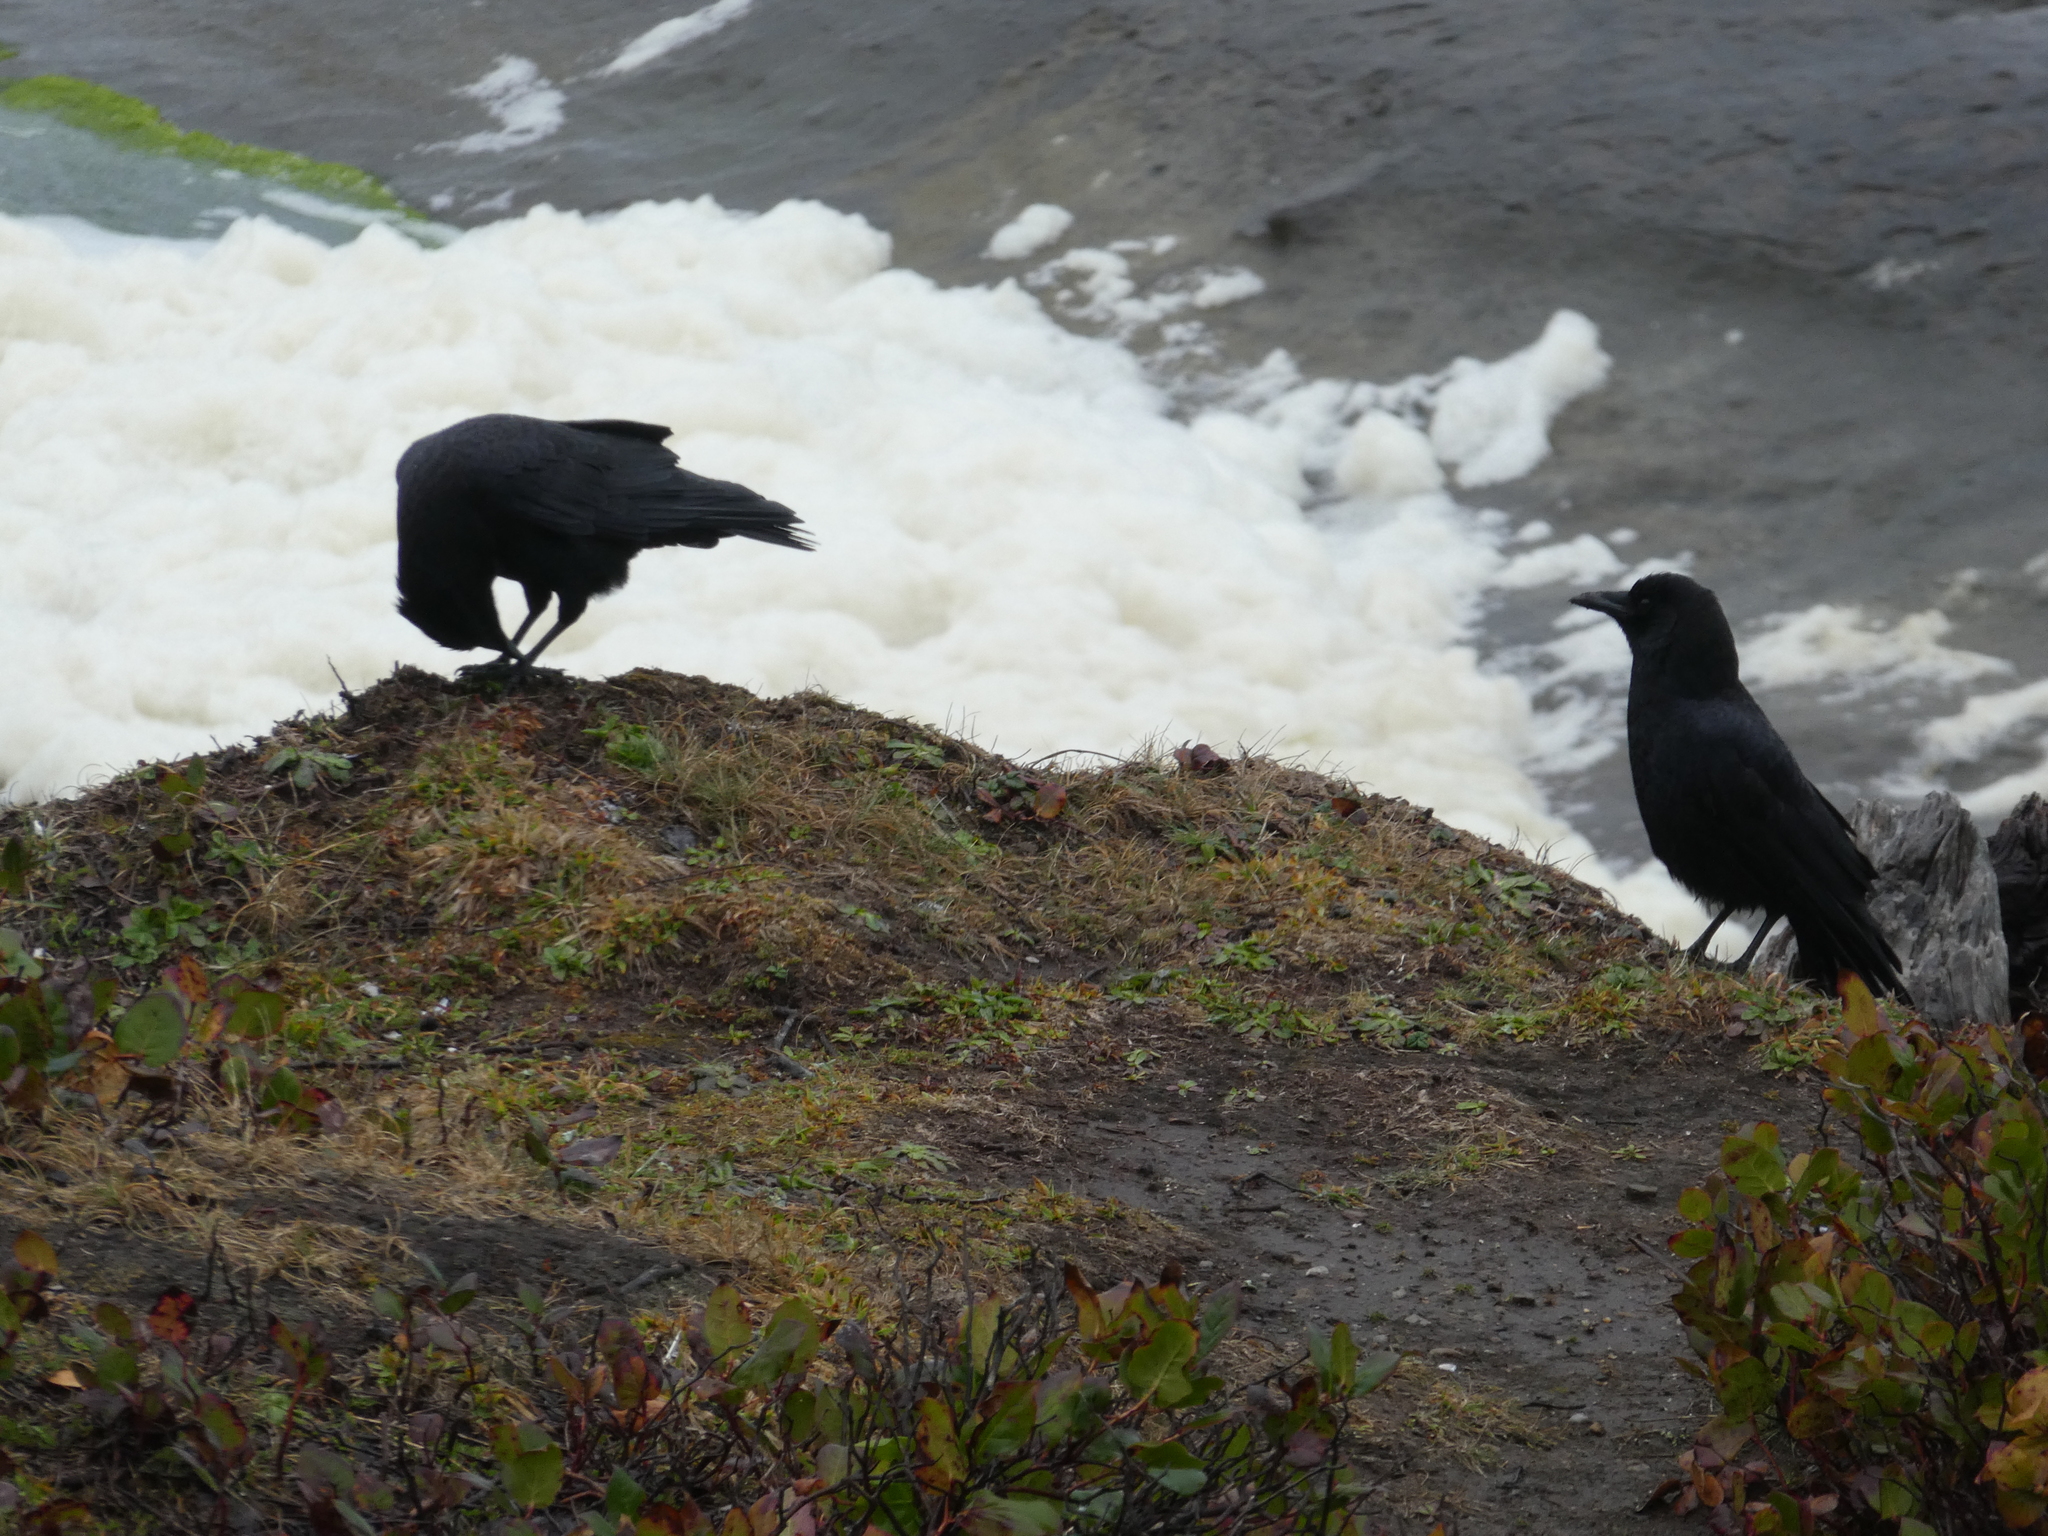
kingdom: Animalia
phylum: Chordata
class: Aves
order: Passeriformes
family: Corvidae
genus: Corvus
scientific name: Corvus brachyrhynchos
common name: American crow
